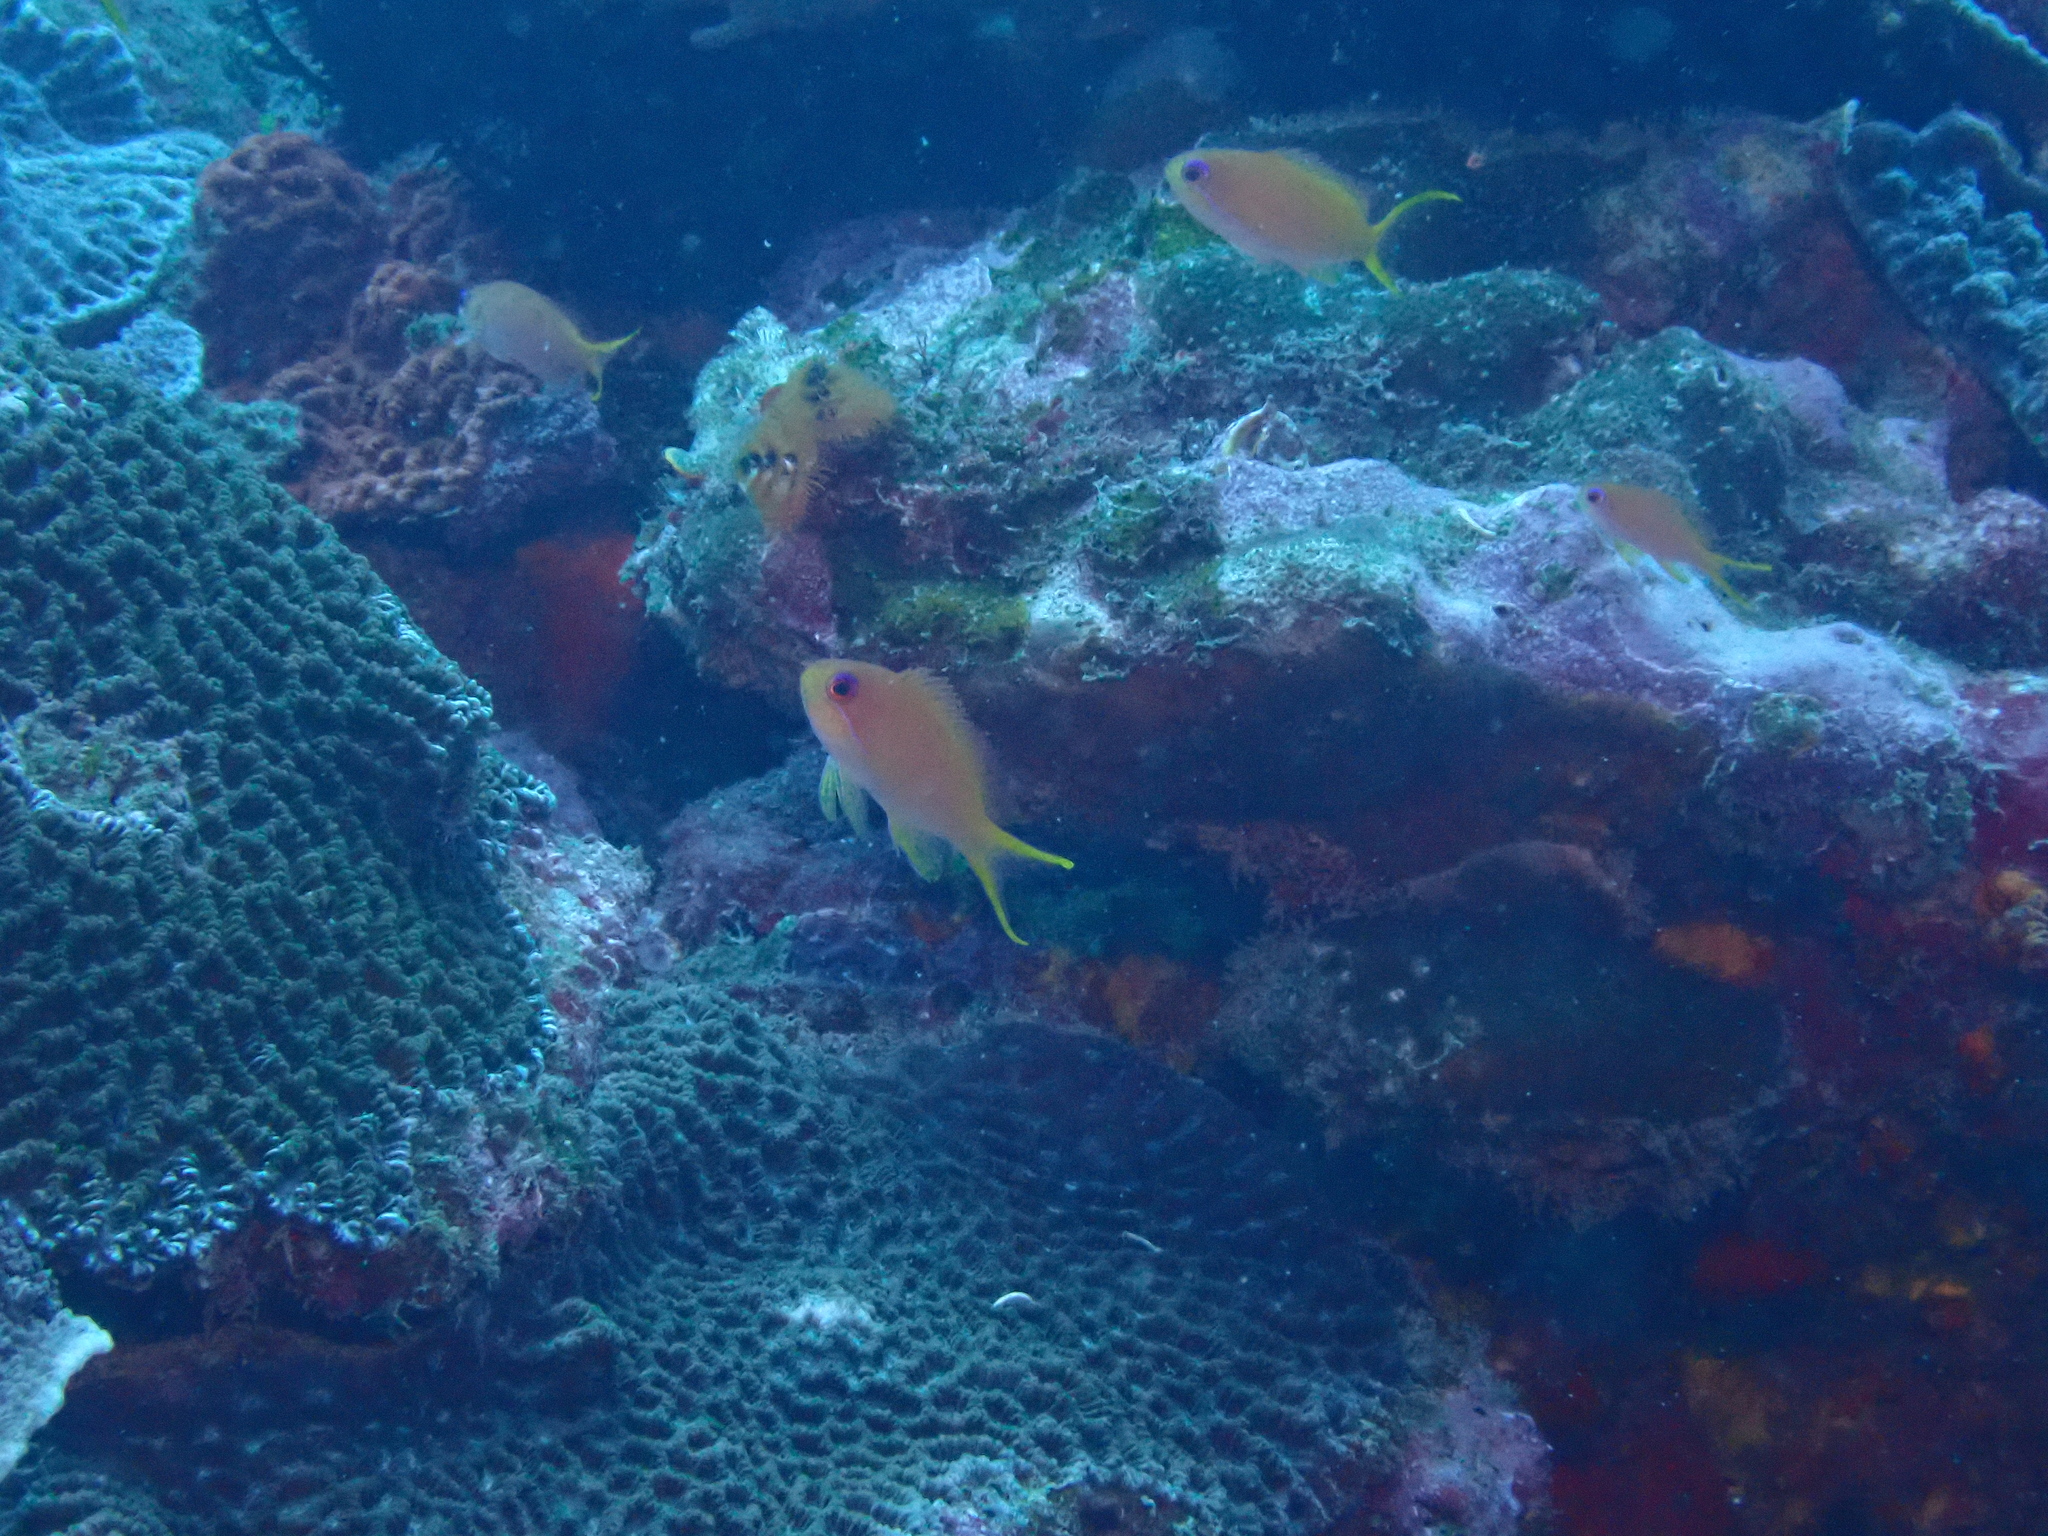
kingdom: Animalia
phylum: Chordata
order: Perciformes
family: Serranidae
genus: Pseudanthias
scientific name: Pseudanthias nobilis
